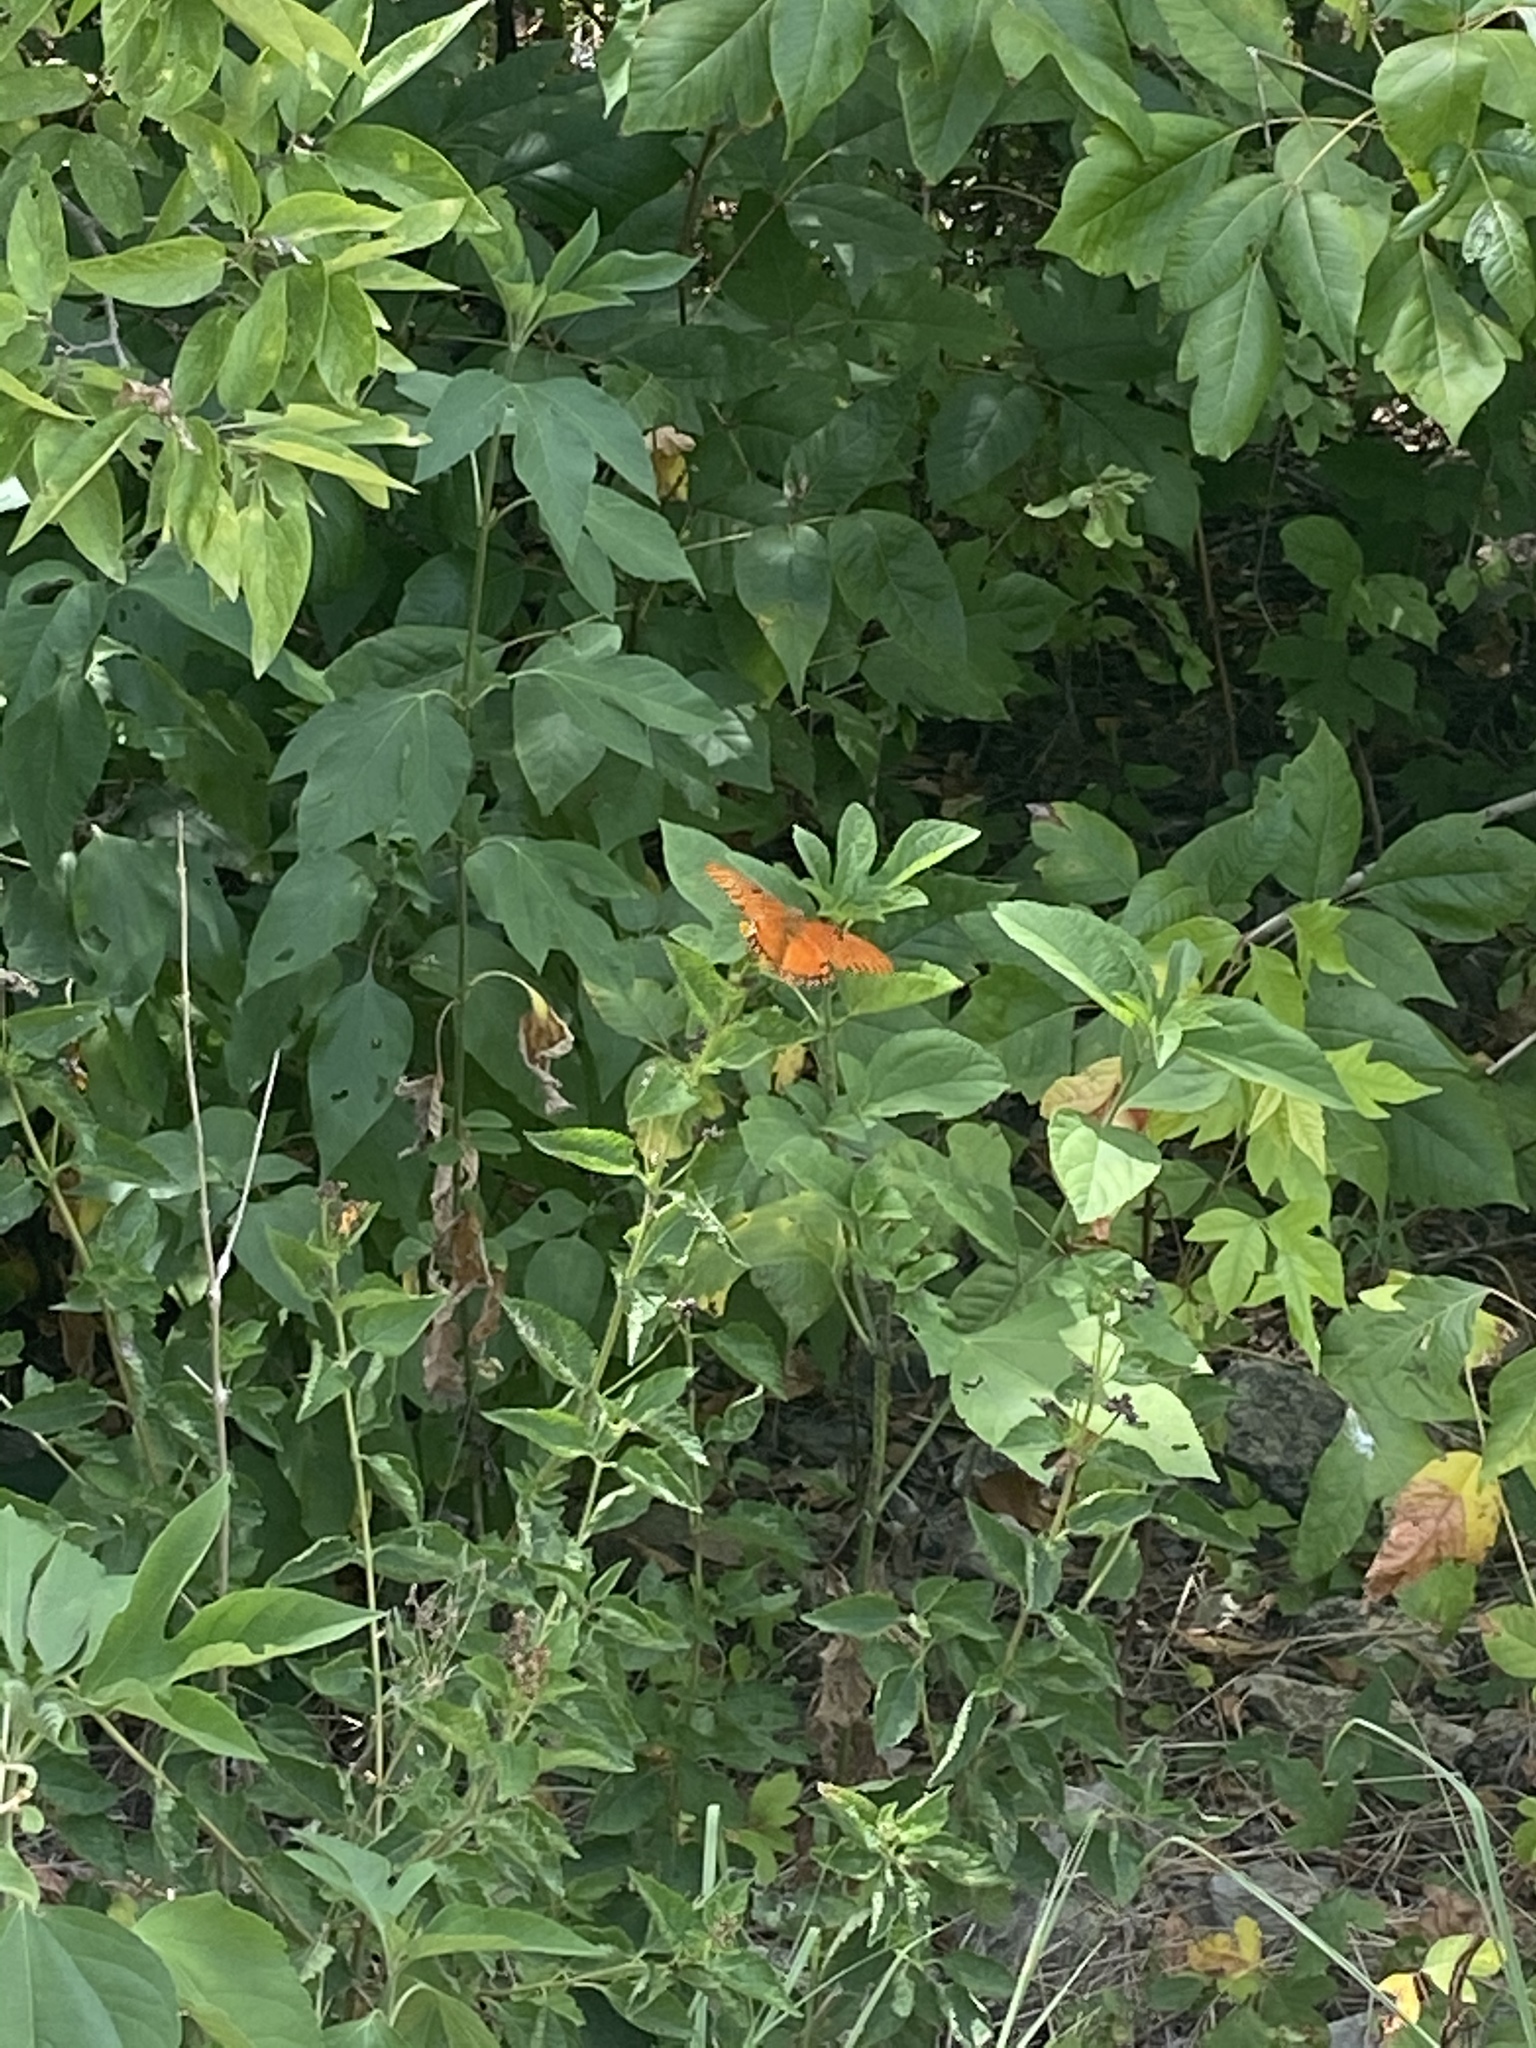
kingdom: Animalia
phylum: Arthropoda
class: Insecta
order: Lepidoptera
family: Nymphalidae
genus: Dione
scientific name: Dione vanillae
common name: Gulf fritillary
